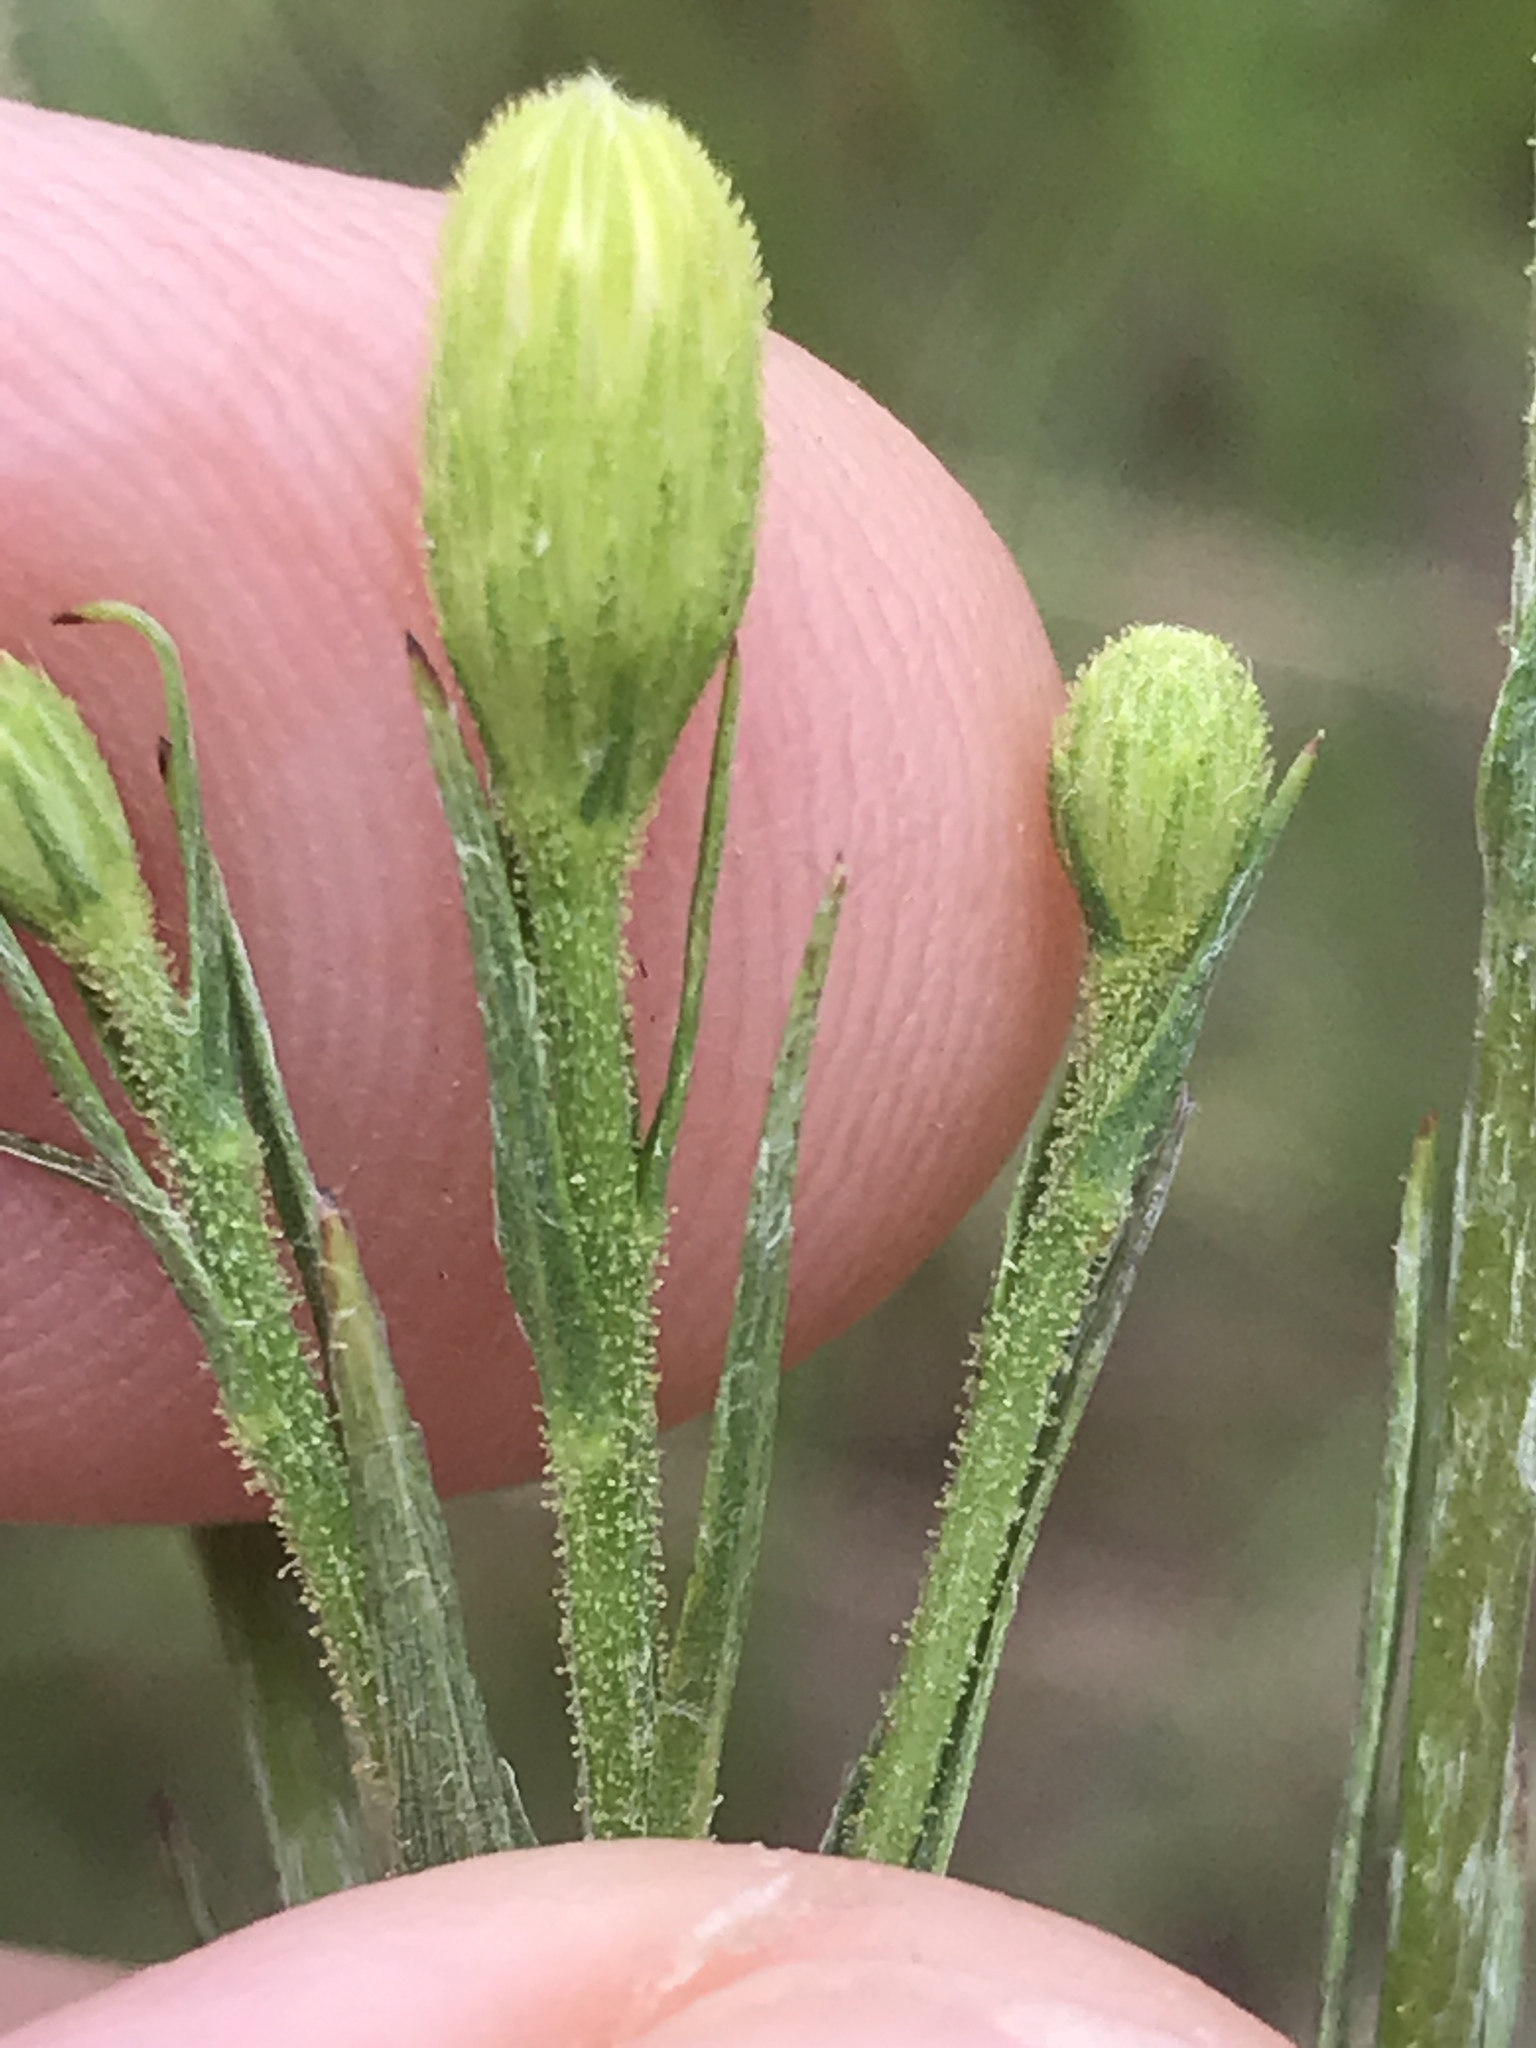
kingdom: Plantae
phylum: Tracheophyta
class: Magnoliopsida
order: Asterales
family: Asteraceae
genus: Pityopsis
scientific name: Pityopsis aspera
